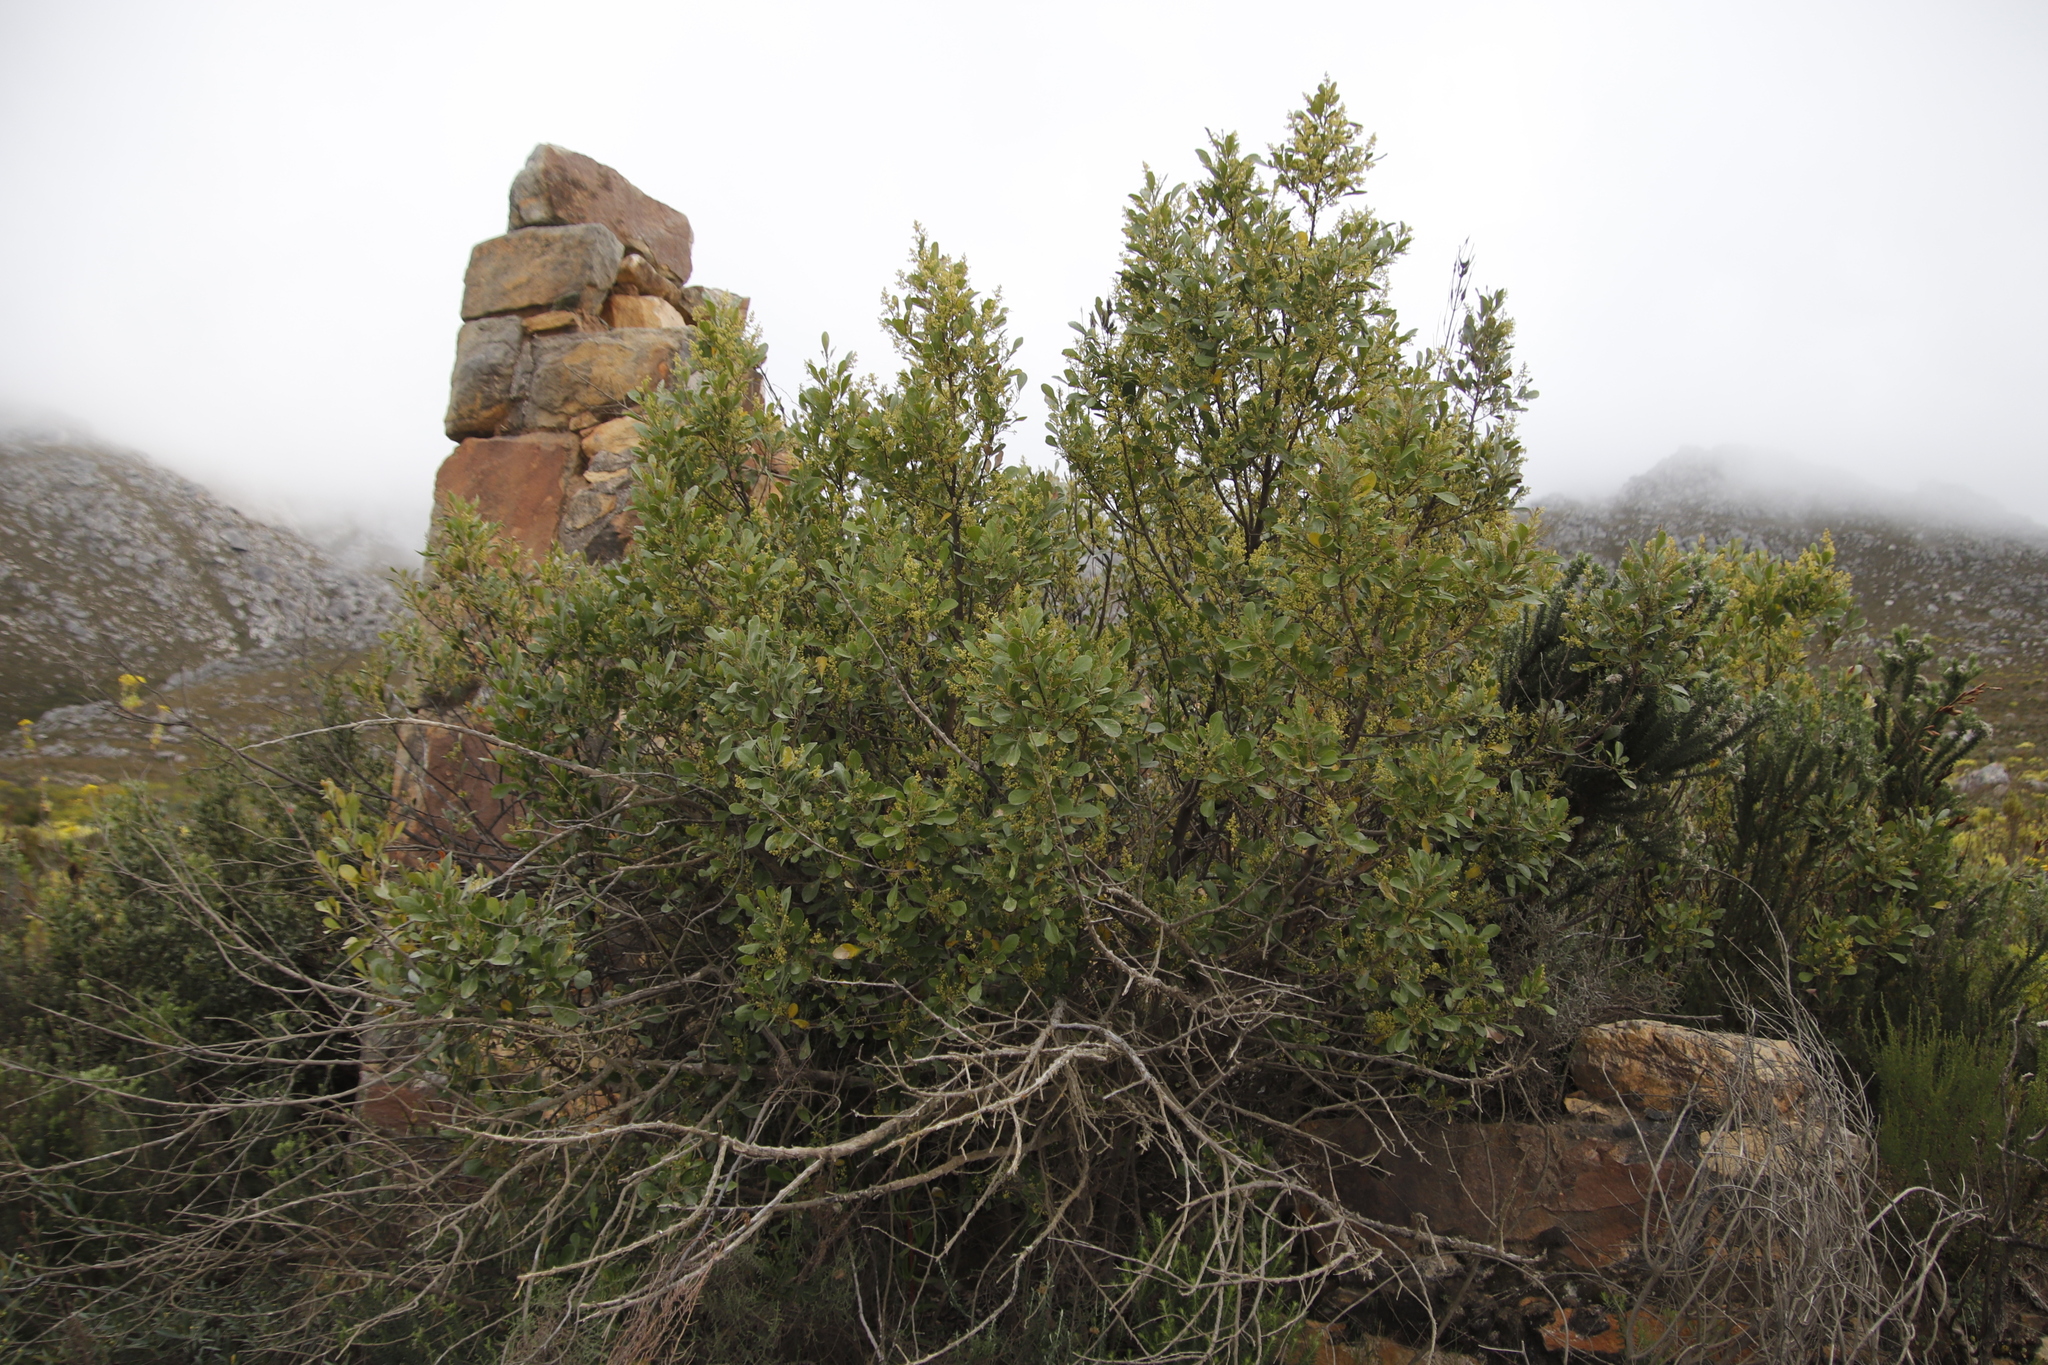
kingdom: Plantae
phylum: Tracheophyta
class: Magnoliopsida
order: Sapindales
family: Anacardiaceae
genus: Searsia
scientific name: Searsia lucida
